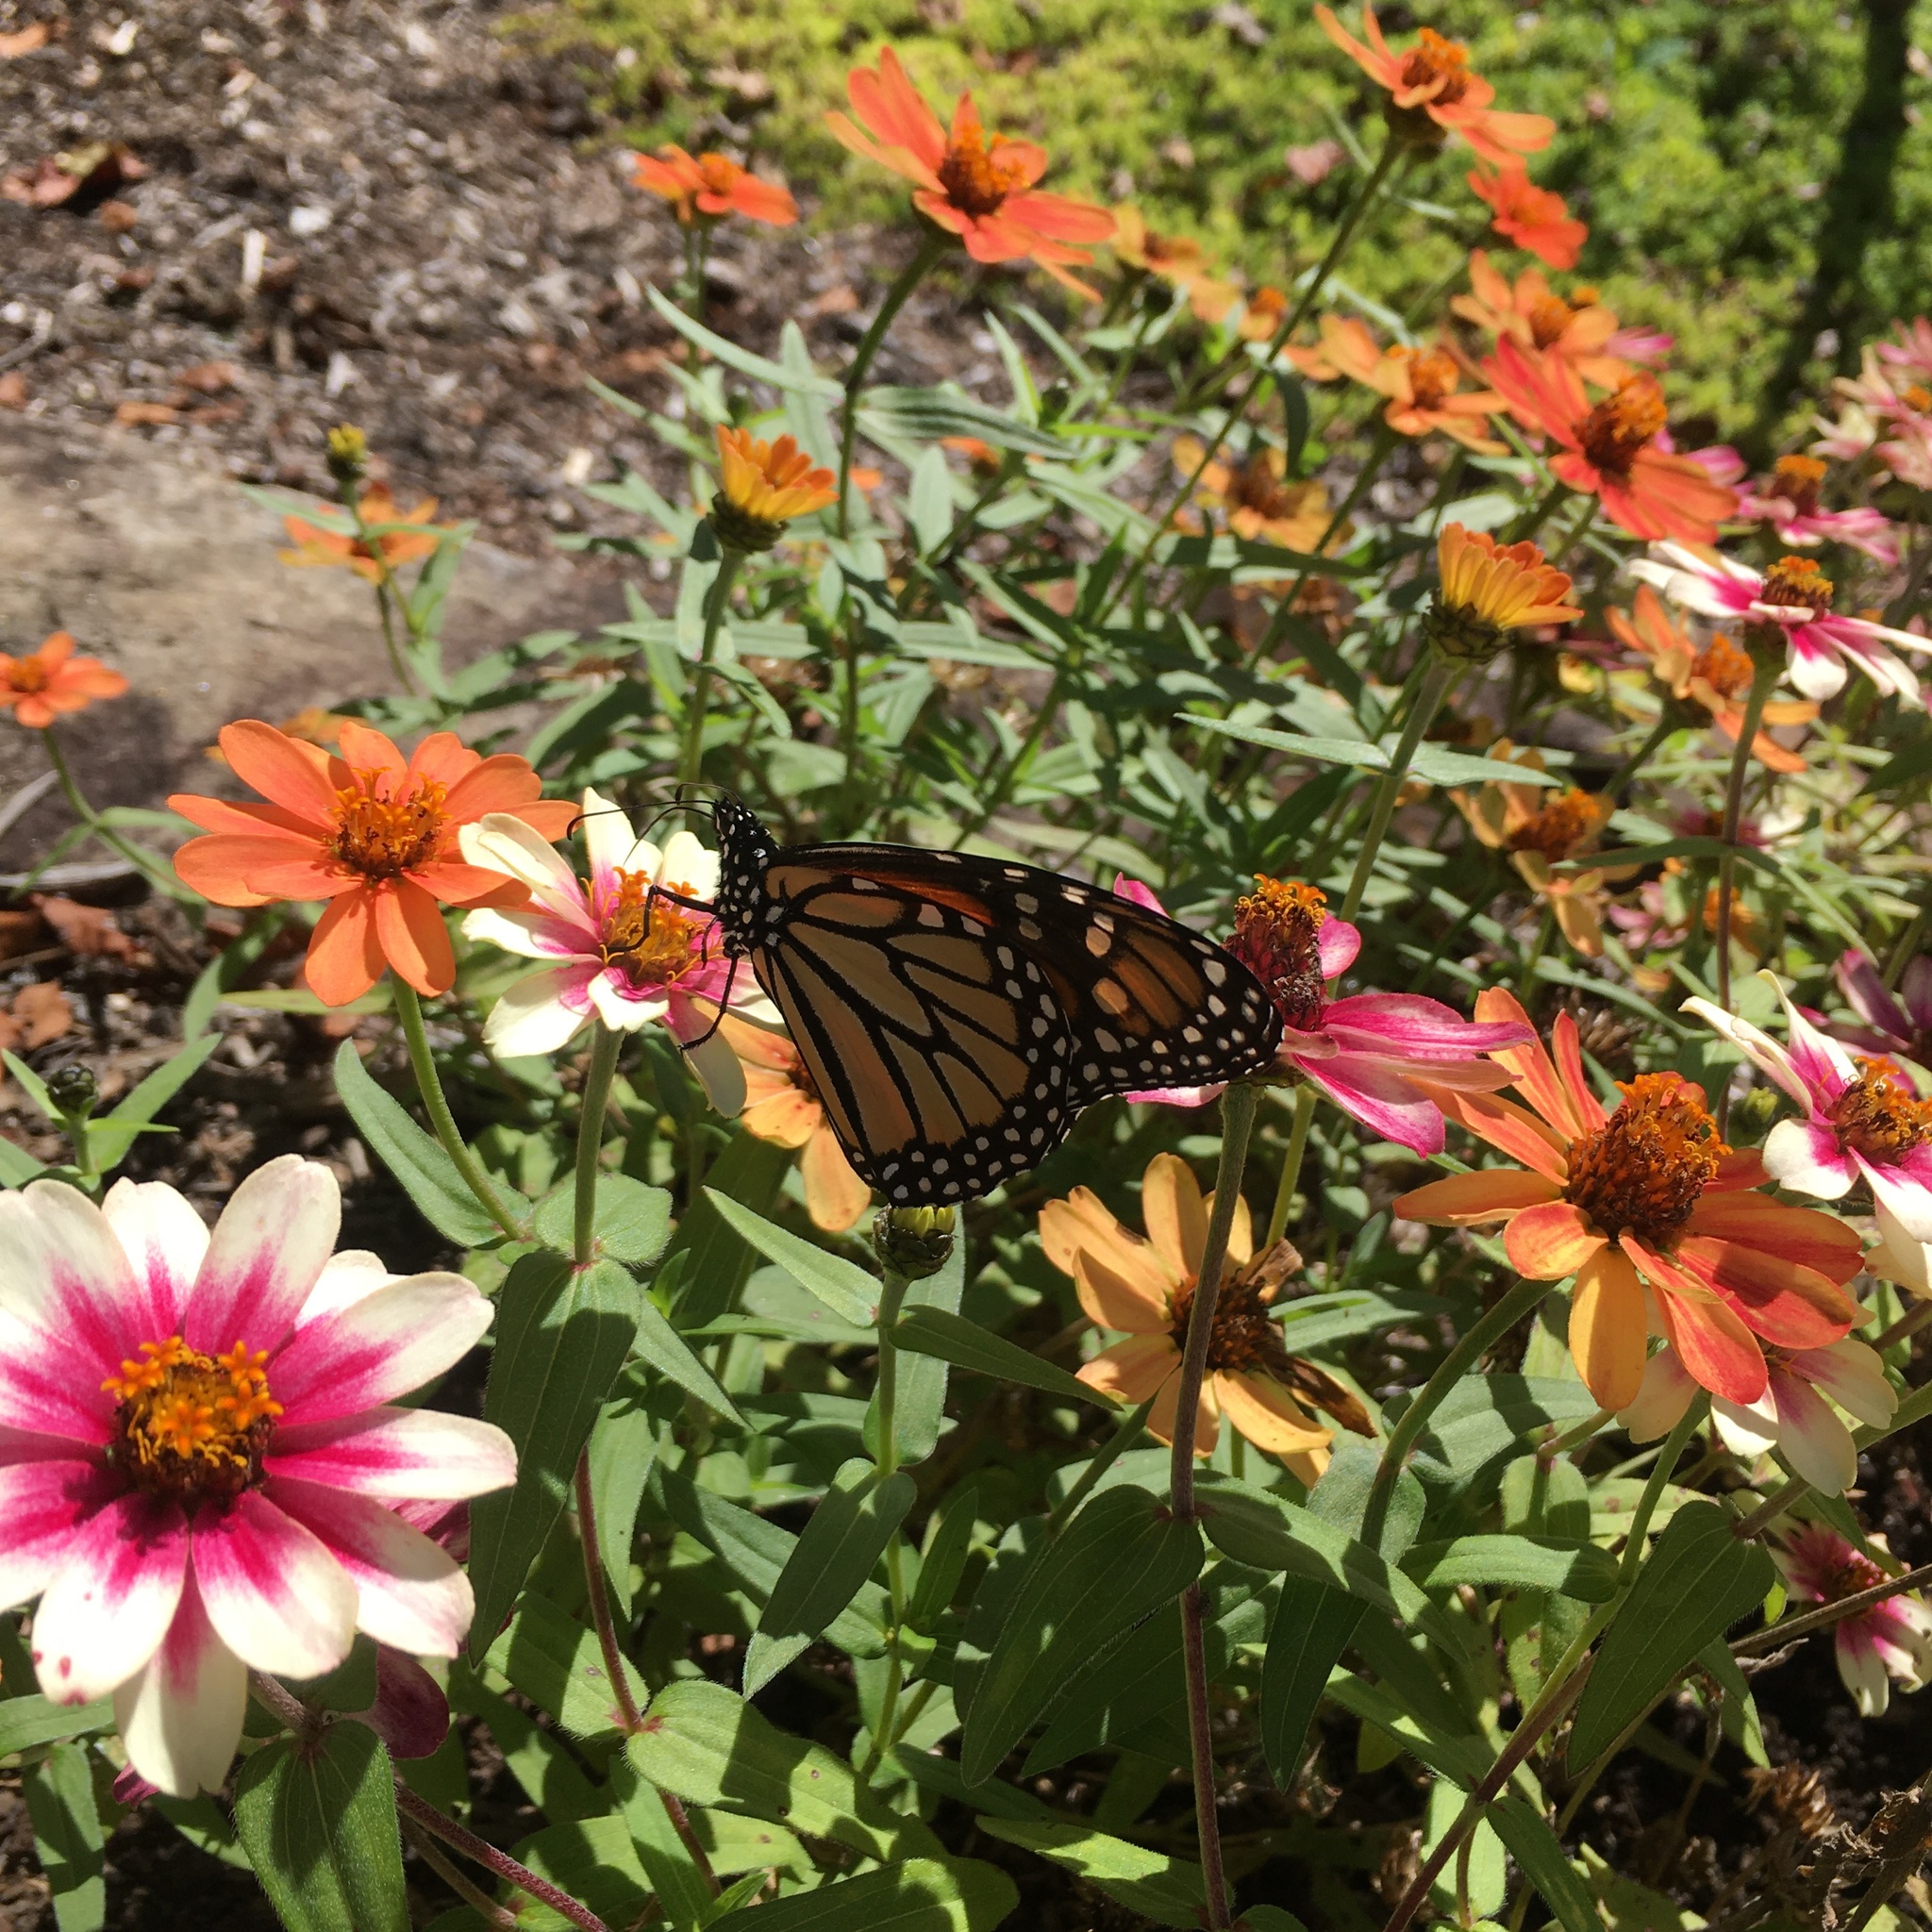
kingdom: Animalia
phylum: Arthropoda
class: Insecta
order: Lepidoptera
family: Nymphalidae
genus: Danaus
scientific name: Danaus plexippus
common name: Monarch
